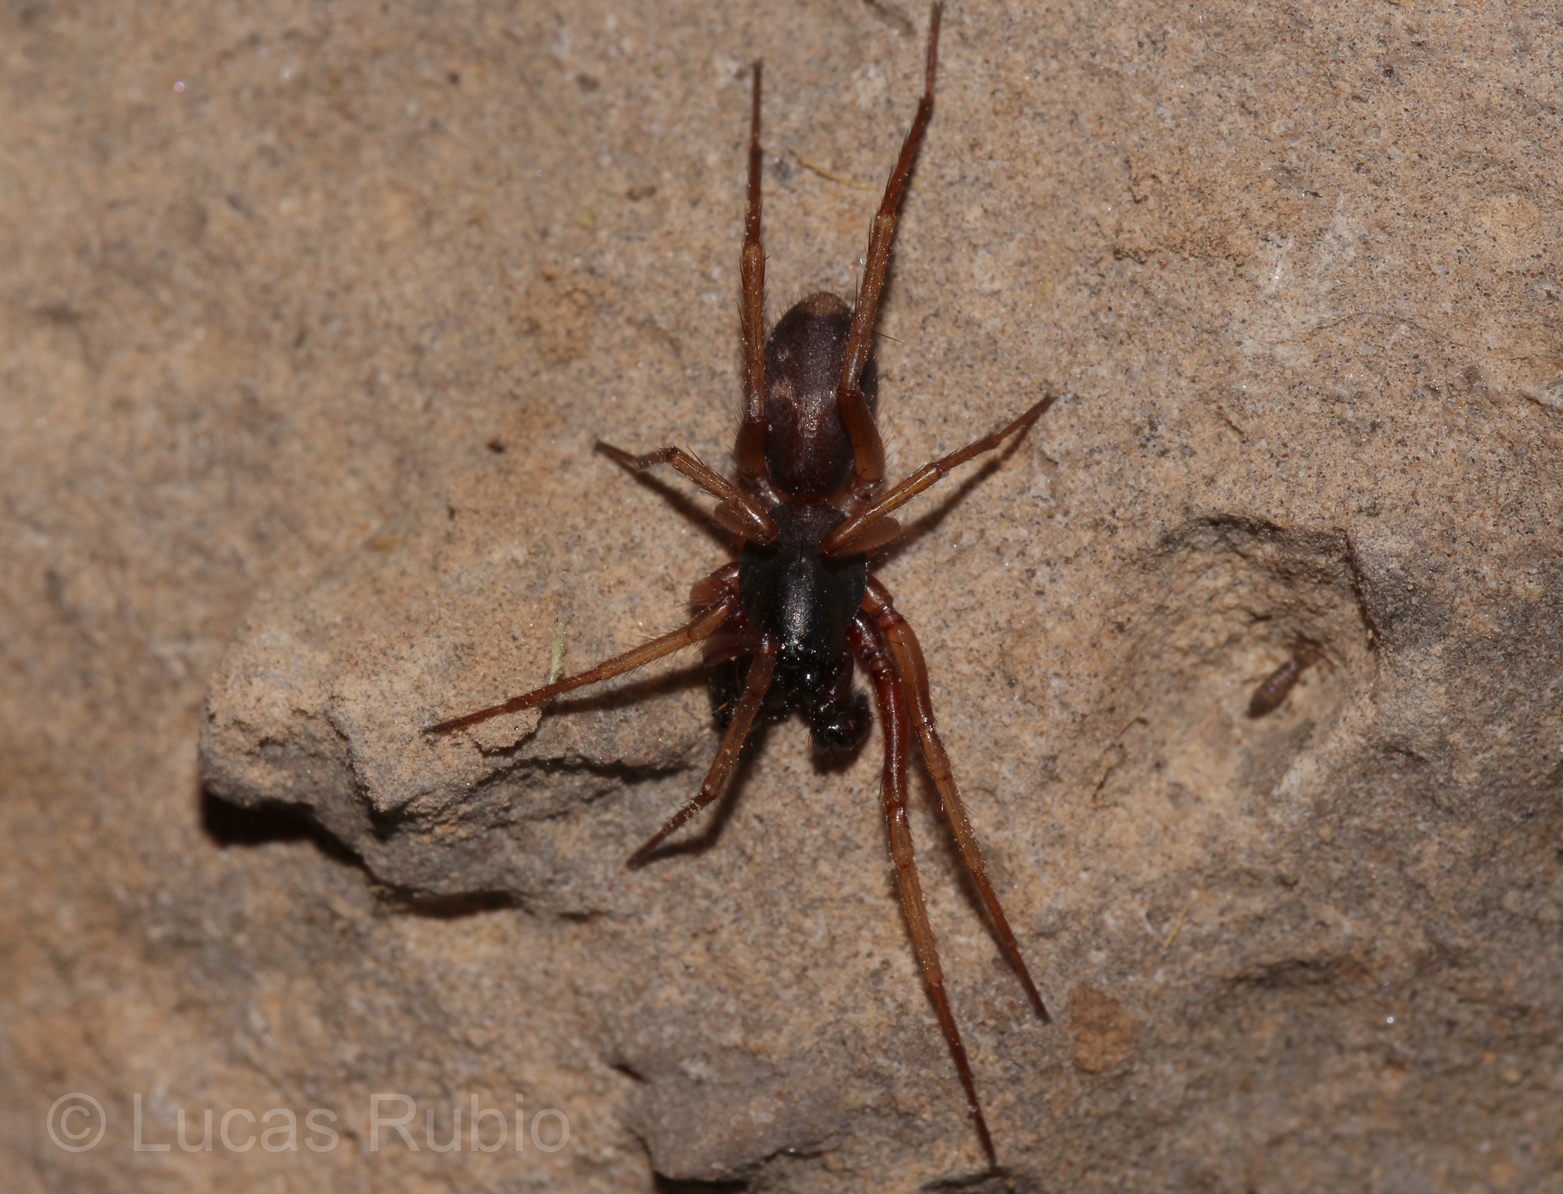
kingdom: Animalia
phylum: Arthropoda
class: Arachnida
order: Araneae
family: Corinnidae
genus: Falconina
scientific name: Falconina gracilis
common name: Antmimic spider
